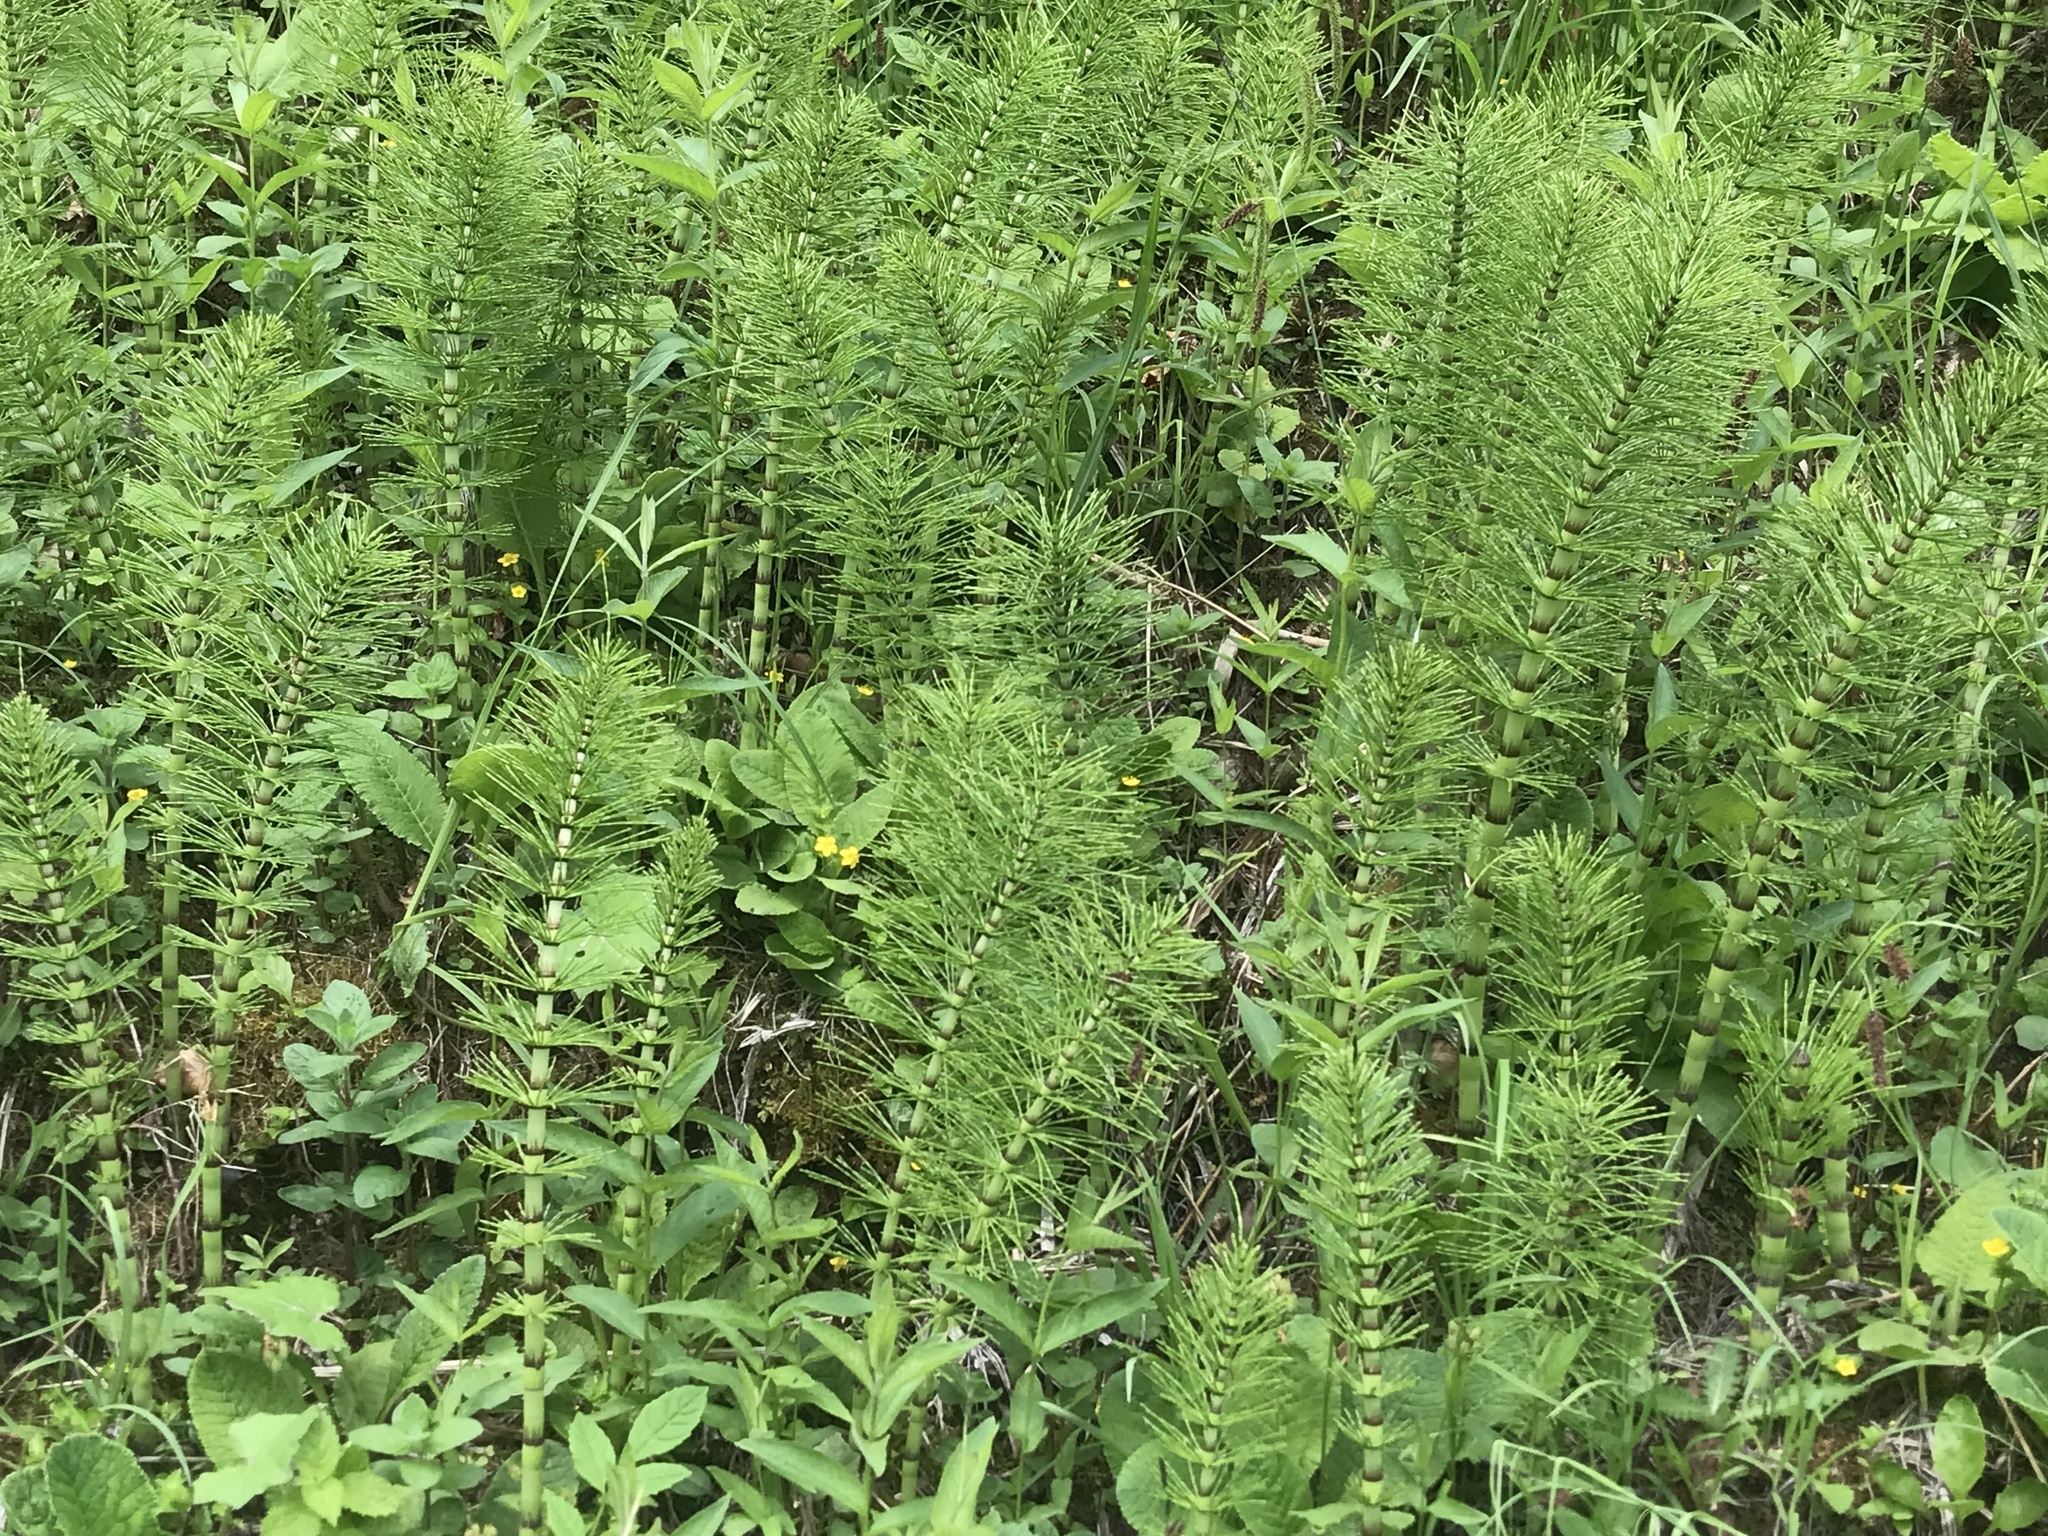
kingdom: Plantae
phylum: Tracheophyta
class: Polypodiopsida
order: Equisetales
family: Equisetaceae
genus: Equisetum
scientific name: Equisetum telmateia
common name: Great horsetail
